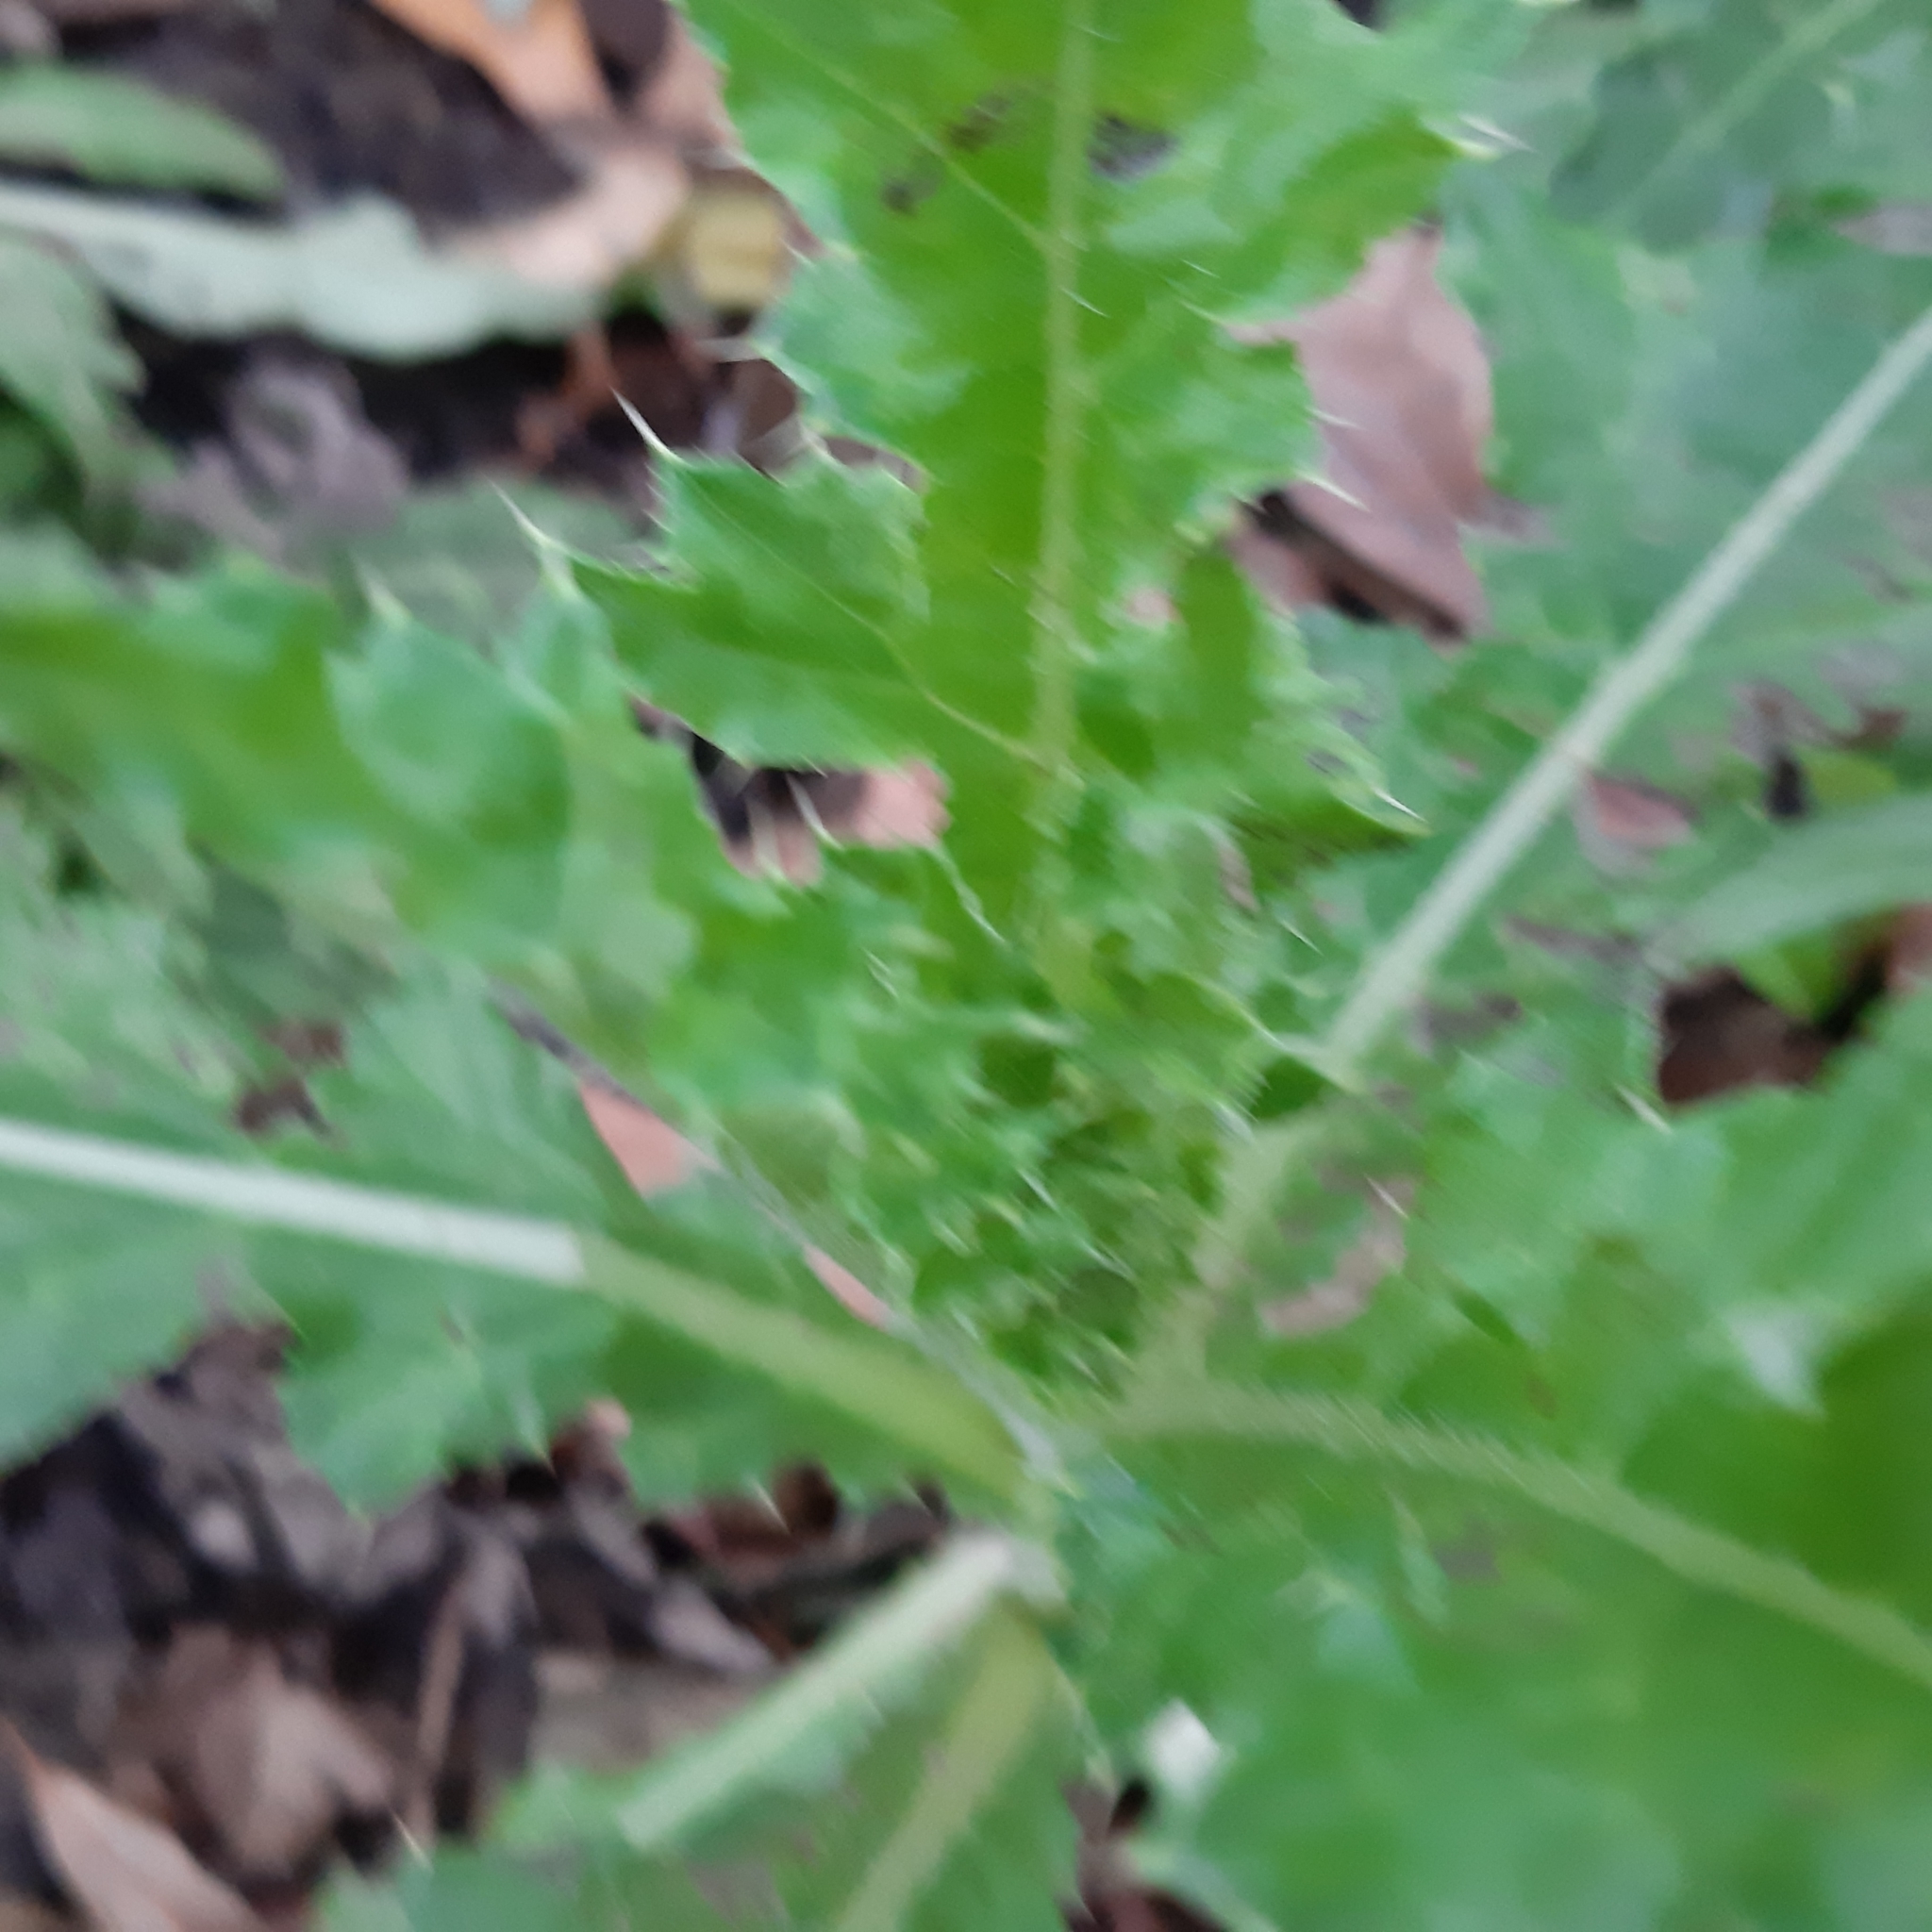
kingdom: Plantae
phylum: Tracheophyta
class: Magnoliopsida
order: Asterales
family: Asteraceae
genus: Cirsium
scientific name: Cirsium arvense
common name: Creeping thistle
